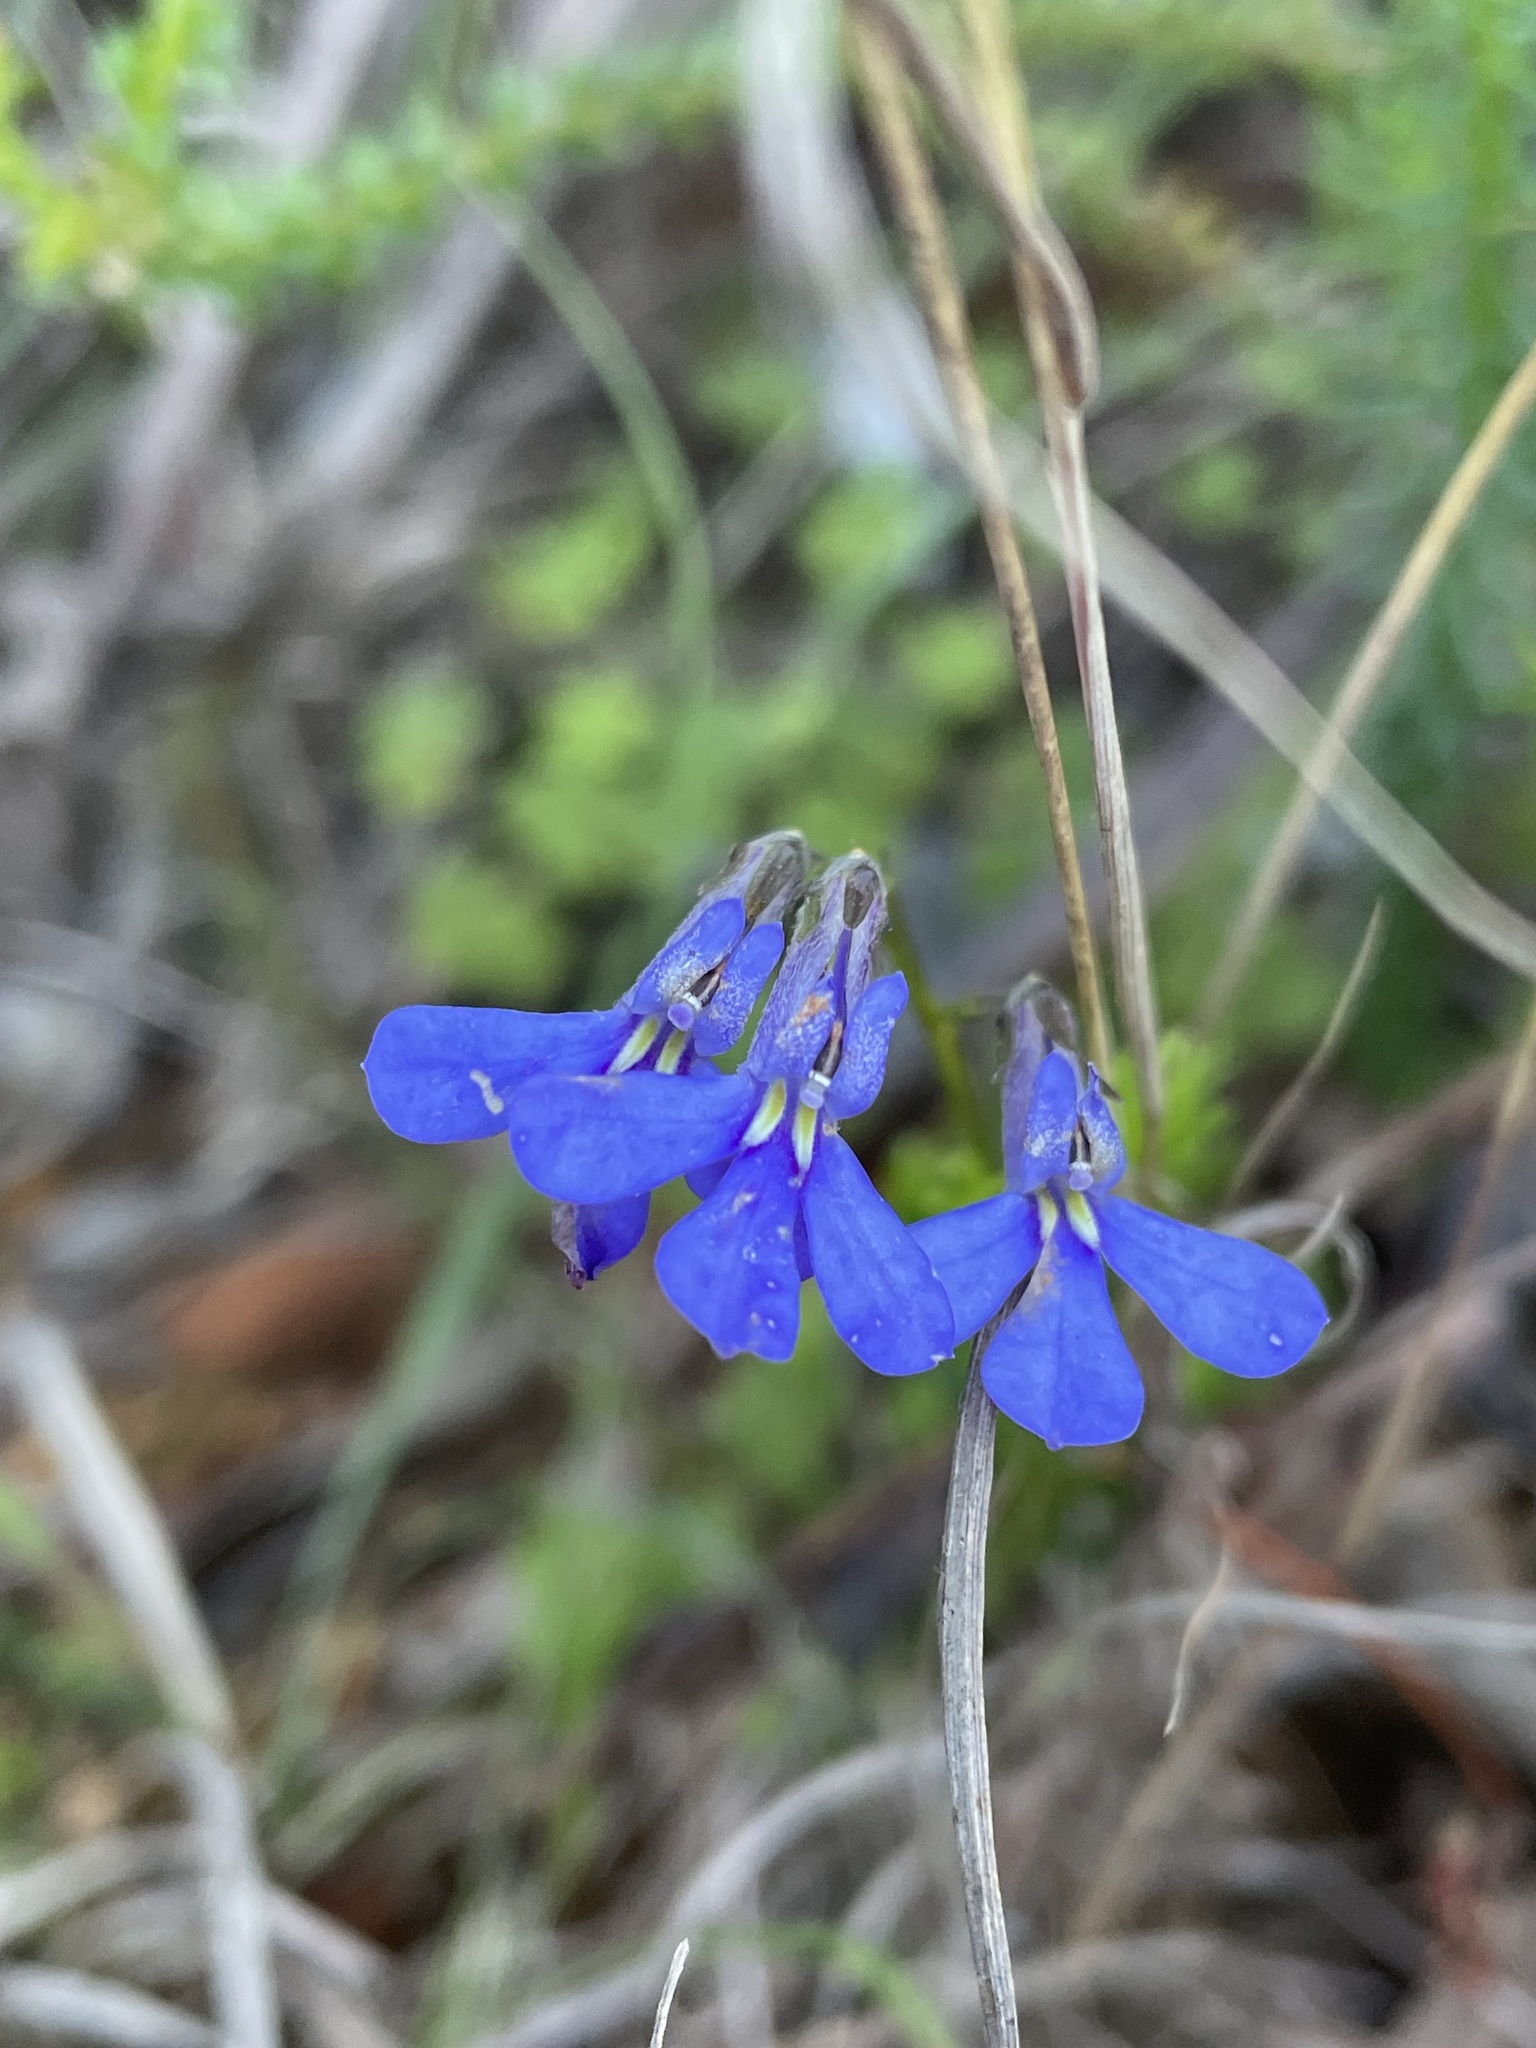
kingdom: Plantae
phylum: Tracheophyta
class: Magnoliopsida
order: Asterales
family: Campanulaceae
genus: Lobelia
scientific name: Lobelia pinifolia
